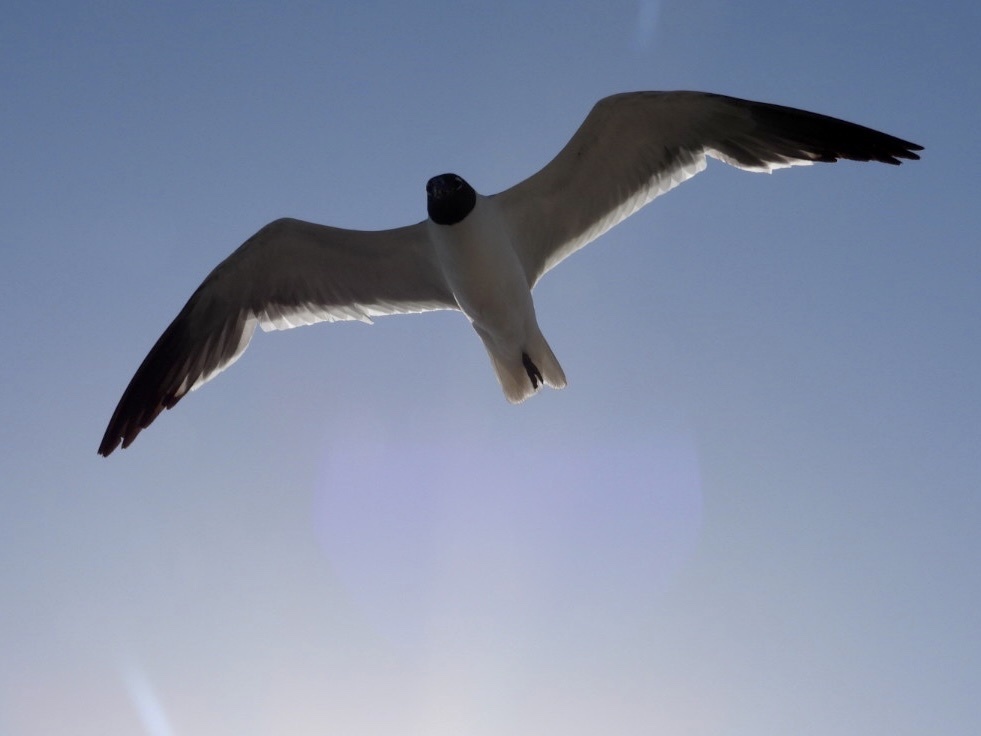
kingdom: Animalia
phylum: Chordata
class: Aves
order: Charadriiformes
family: Laridae
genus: Leucophaeus
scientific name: Leucophaeus atricilla
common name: Laughing gull
